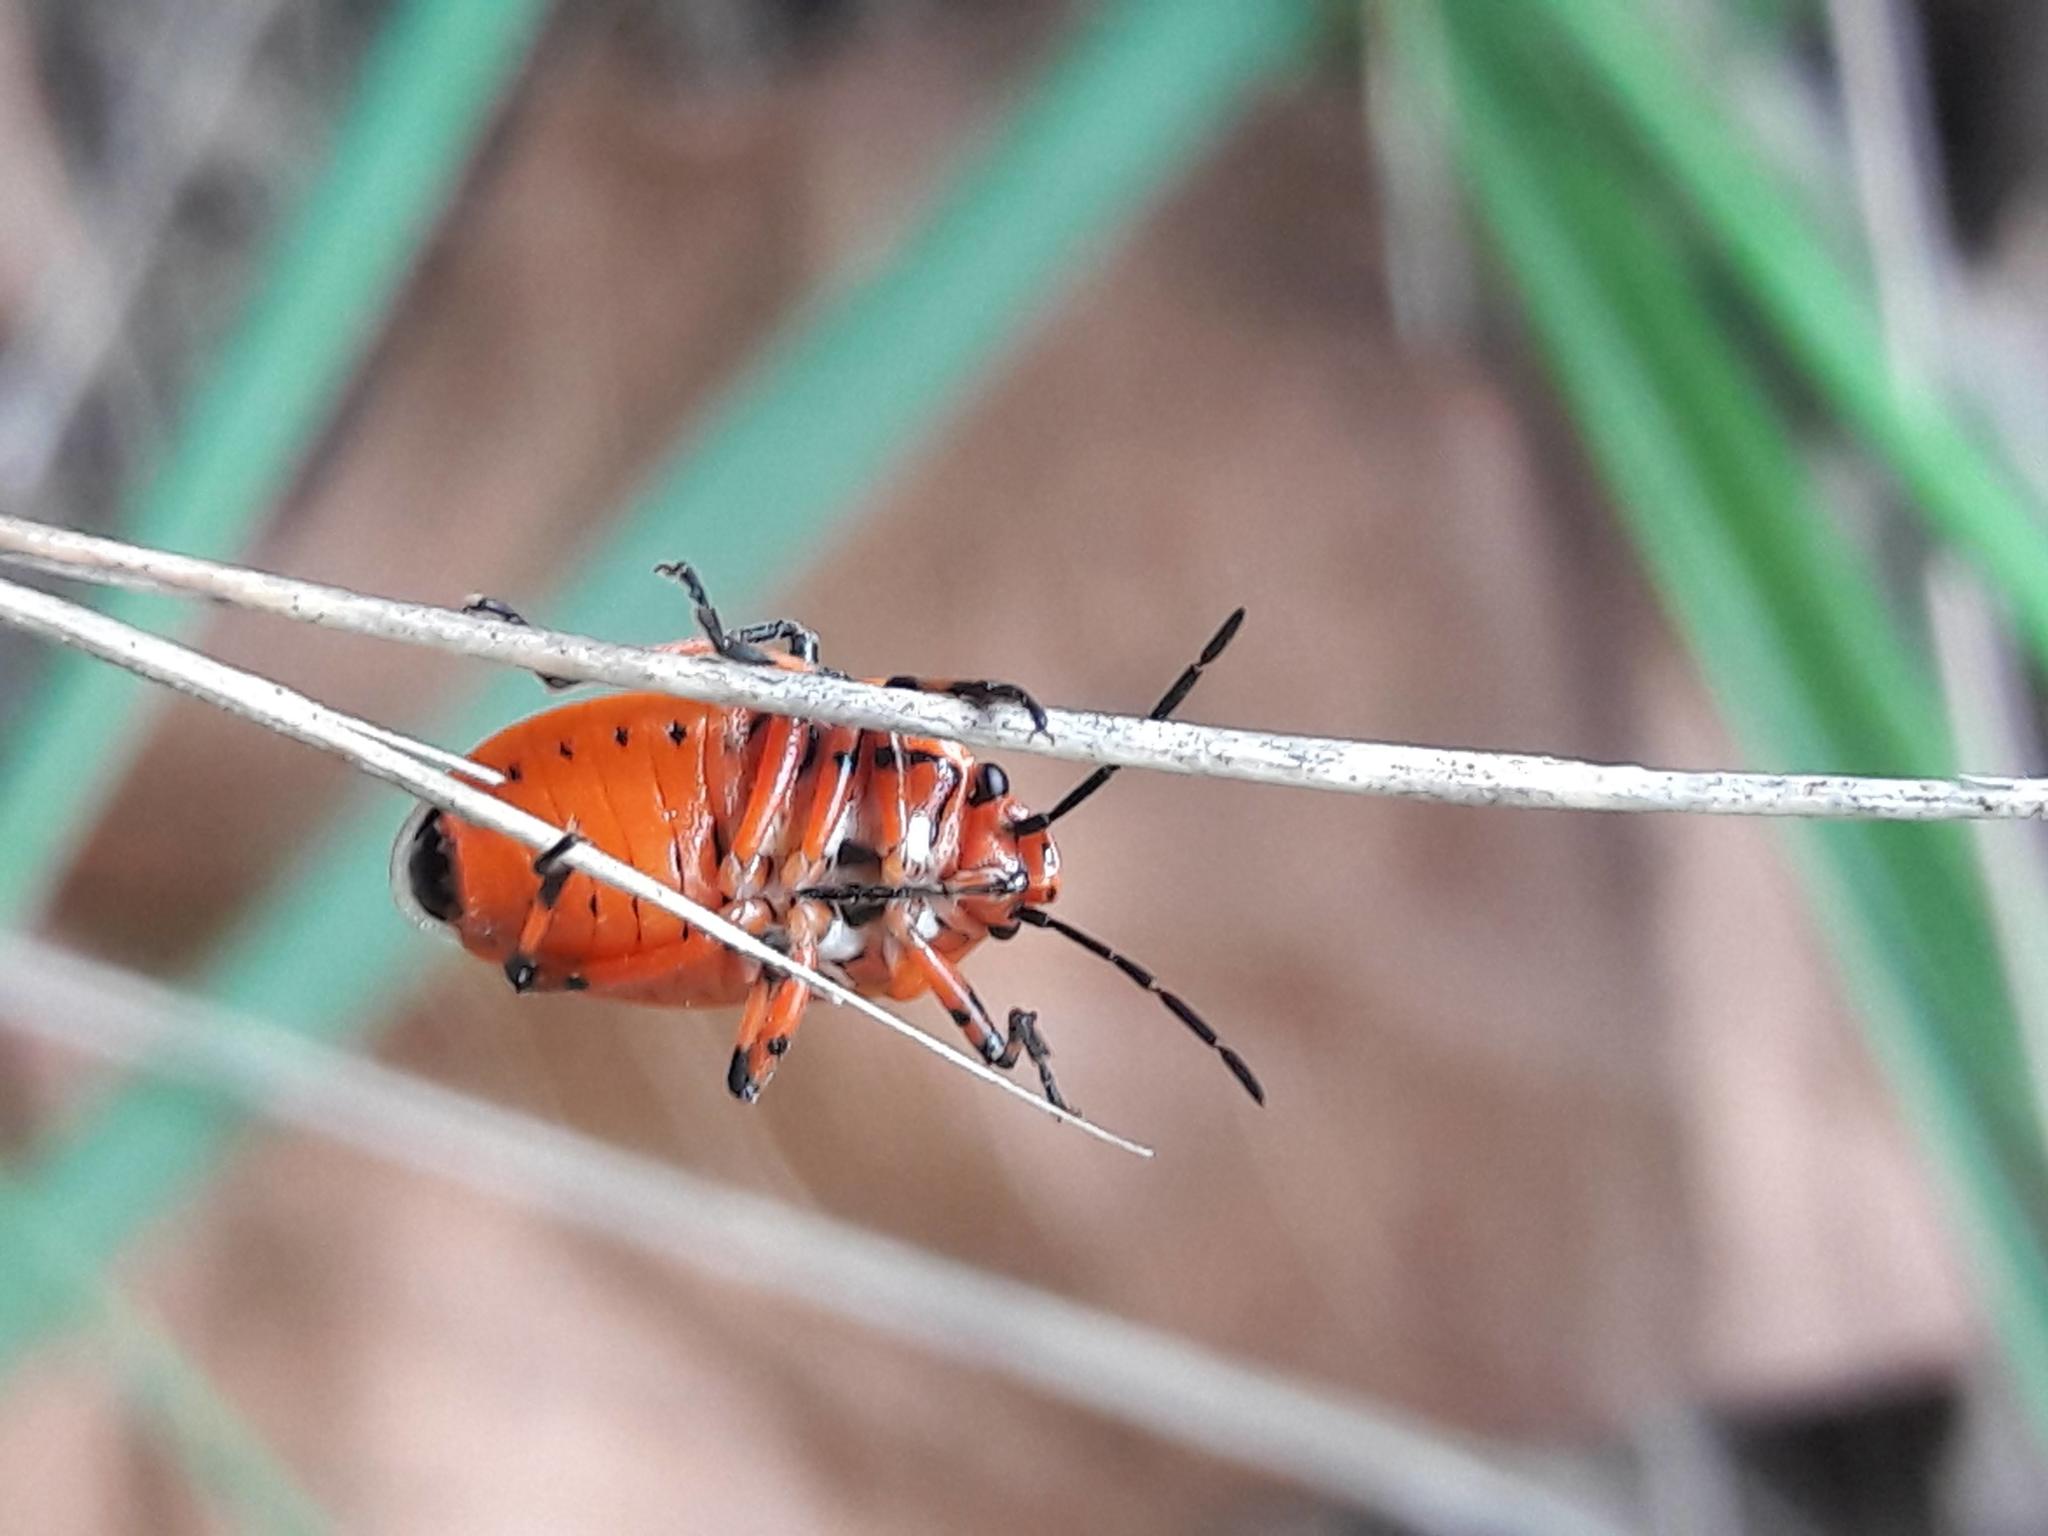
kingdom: Animalia
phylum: Arthropoda
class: Insecta
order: Hemiptera
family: Pentatomidae
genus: Eurydema
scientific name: Eurydema ornata
